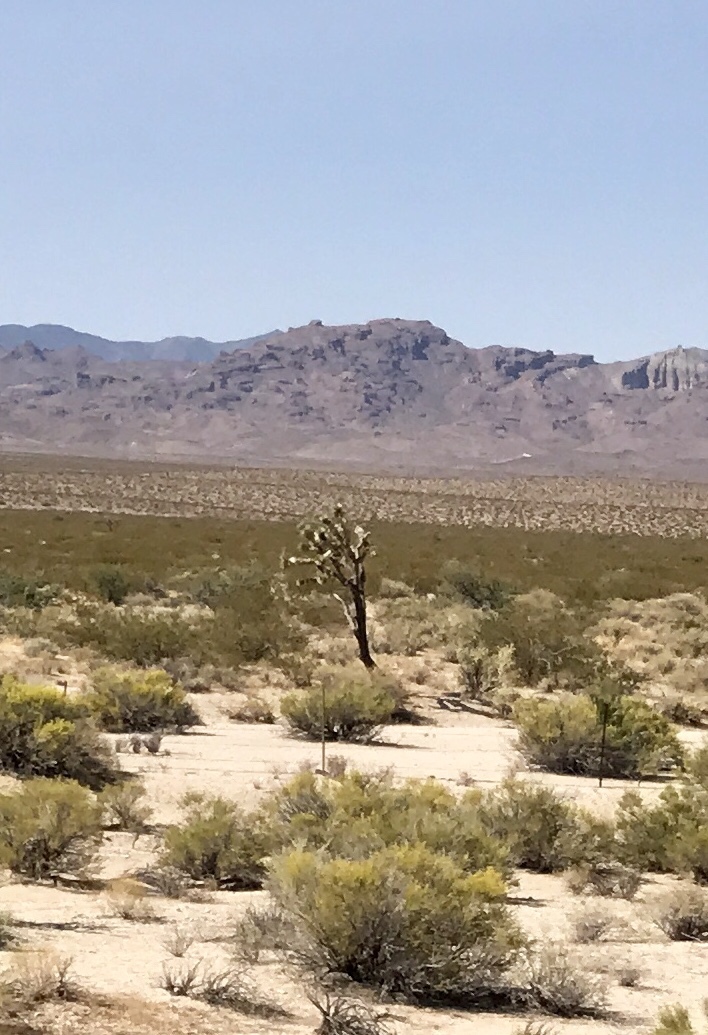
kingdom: Plantae
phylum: Tracheophyta
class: Liliopsida
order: Asparagales
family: Asparagaceae
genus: Yucca
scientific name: Yucca brevifolia
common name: Joshua tree
